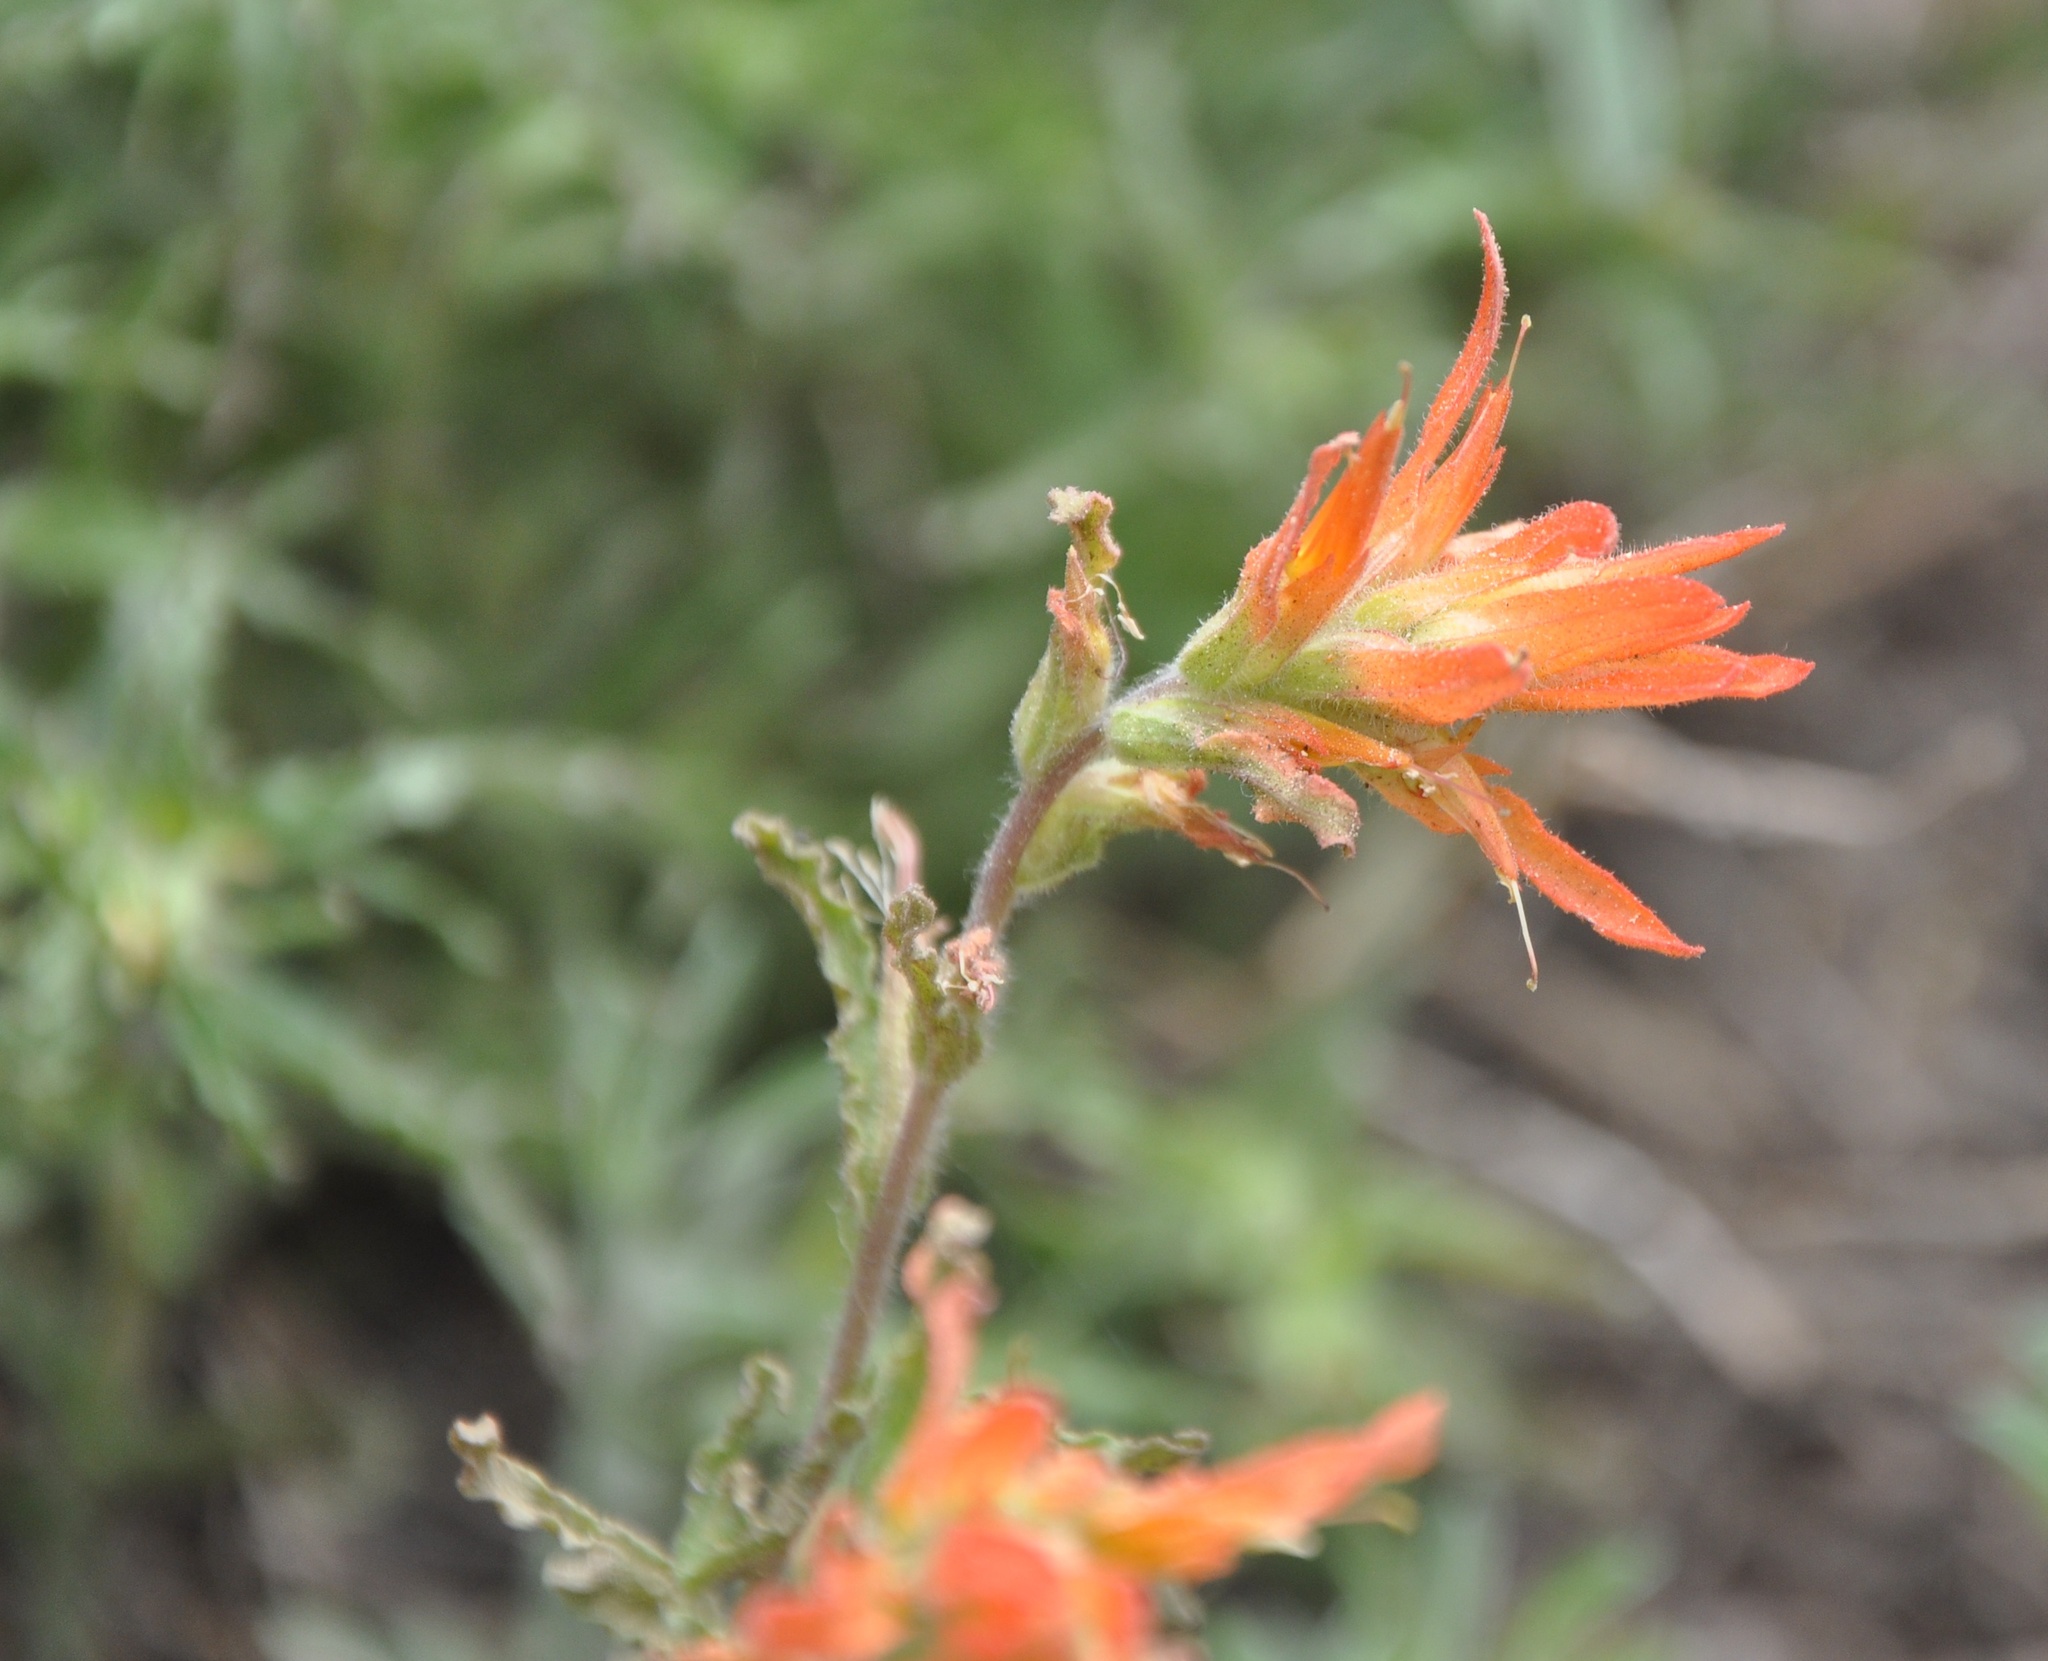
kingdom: Plantae
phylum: Tracheophyta
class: Magnoliopsida
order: Lamiales
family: Orobanchaceae
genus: Castilleja
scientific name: Castilleja disticha
